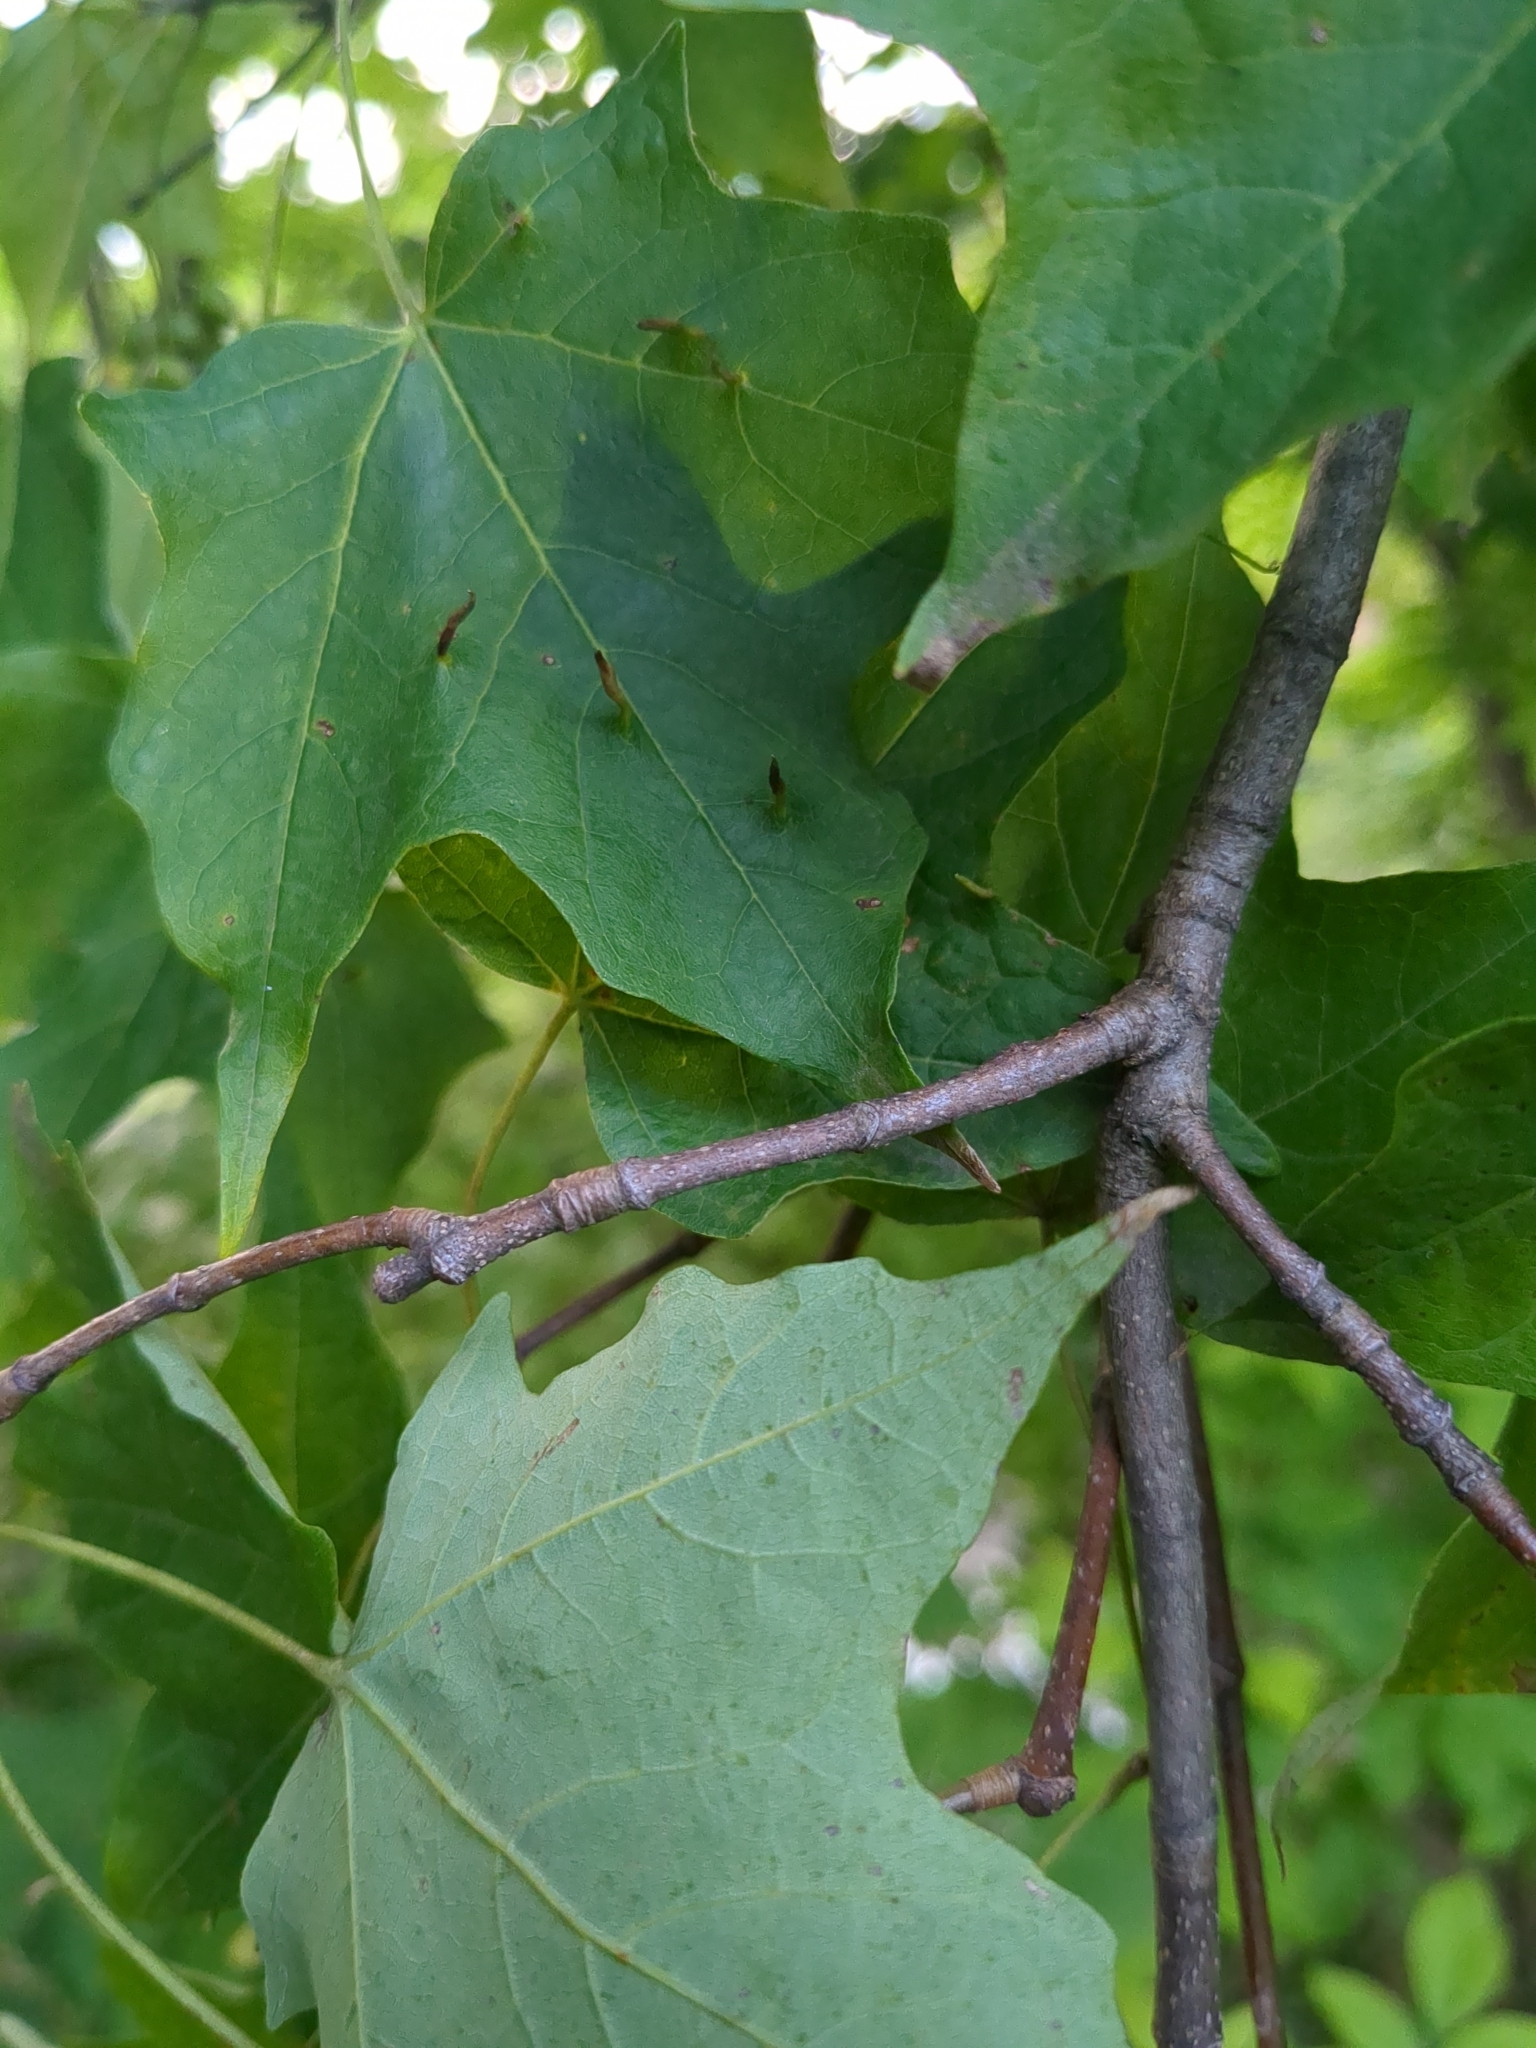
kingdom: Animalia
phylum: Arthropoda
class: Arachnida
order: Trombidiformes
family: Eriophyidae
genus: Vasates
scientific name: Vasates aceriscrumena
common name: Maple spindle gall mite
